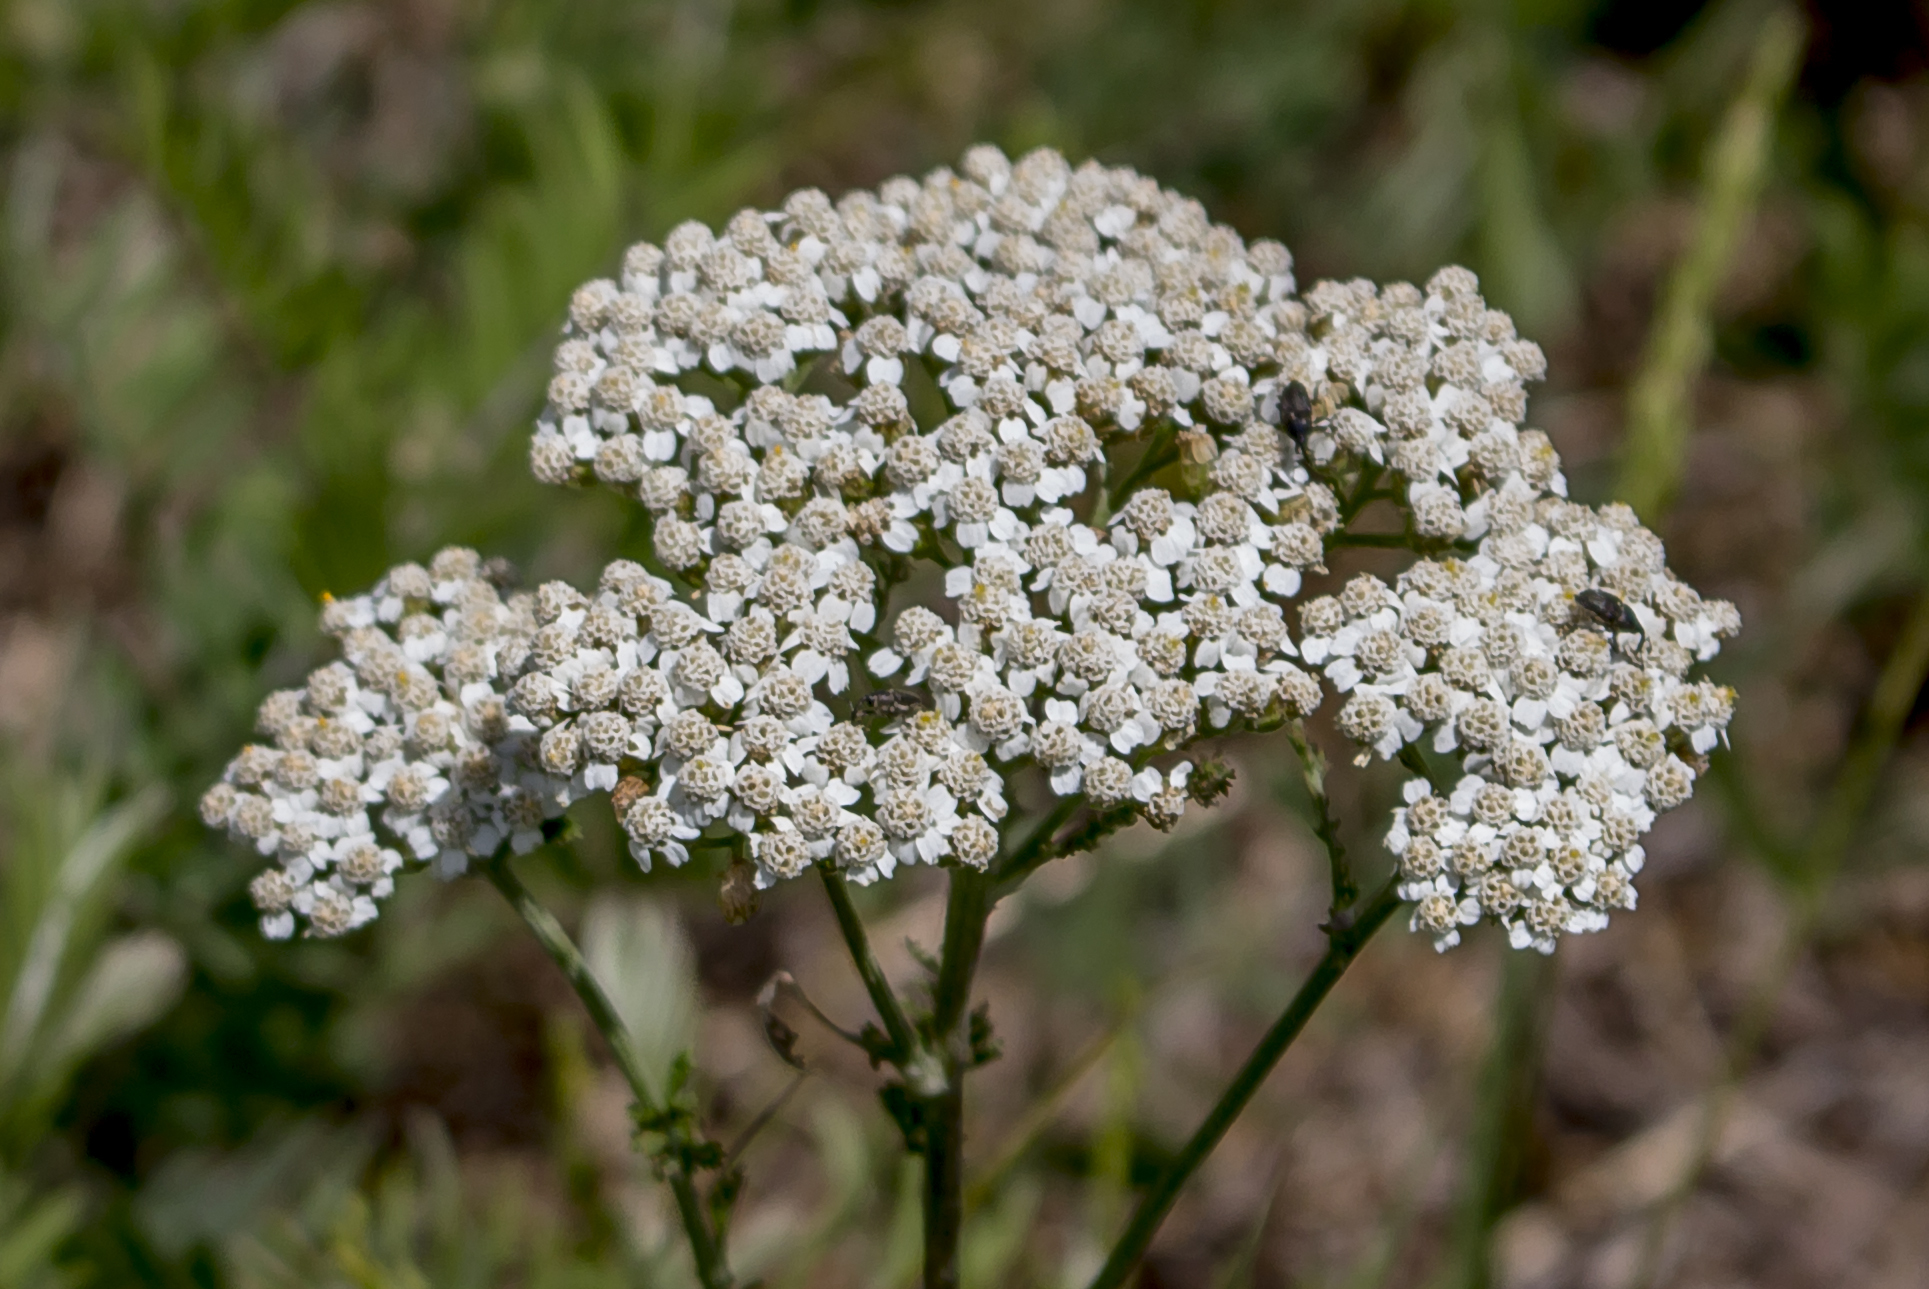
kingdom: Plantae
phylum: Tracheophyta
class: Magnoliopsida
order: Asterales
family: Asteraceae
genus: Achillea
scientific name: Achillea millefolium
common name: Yarrow
